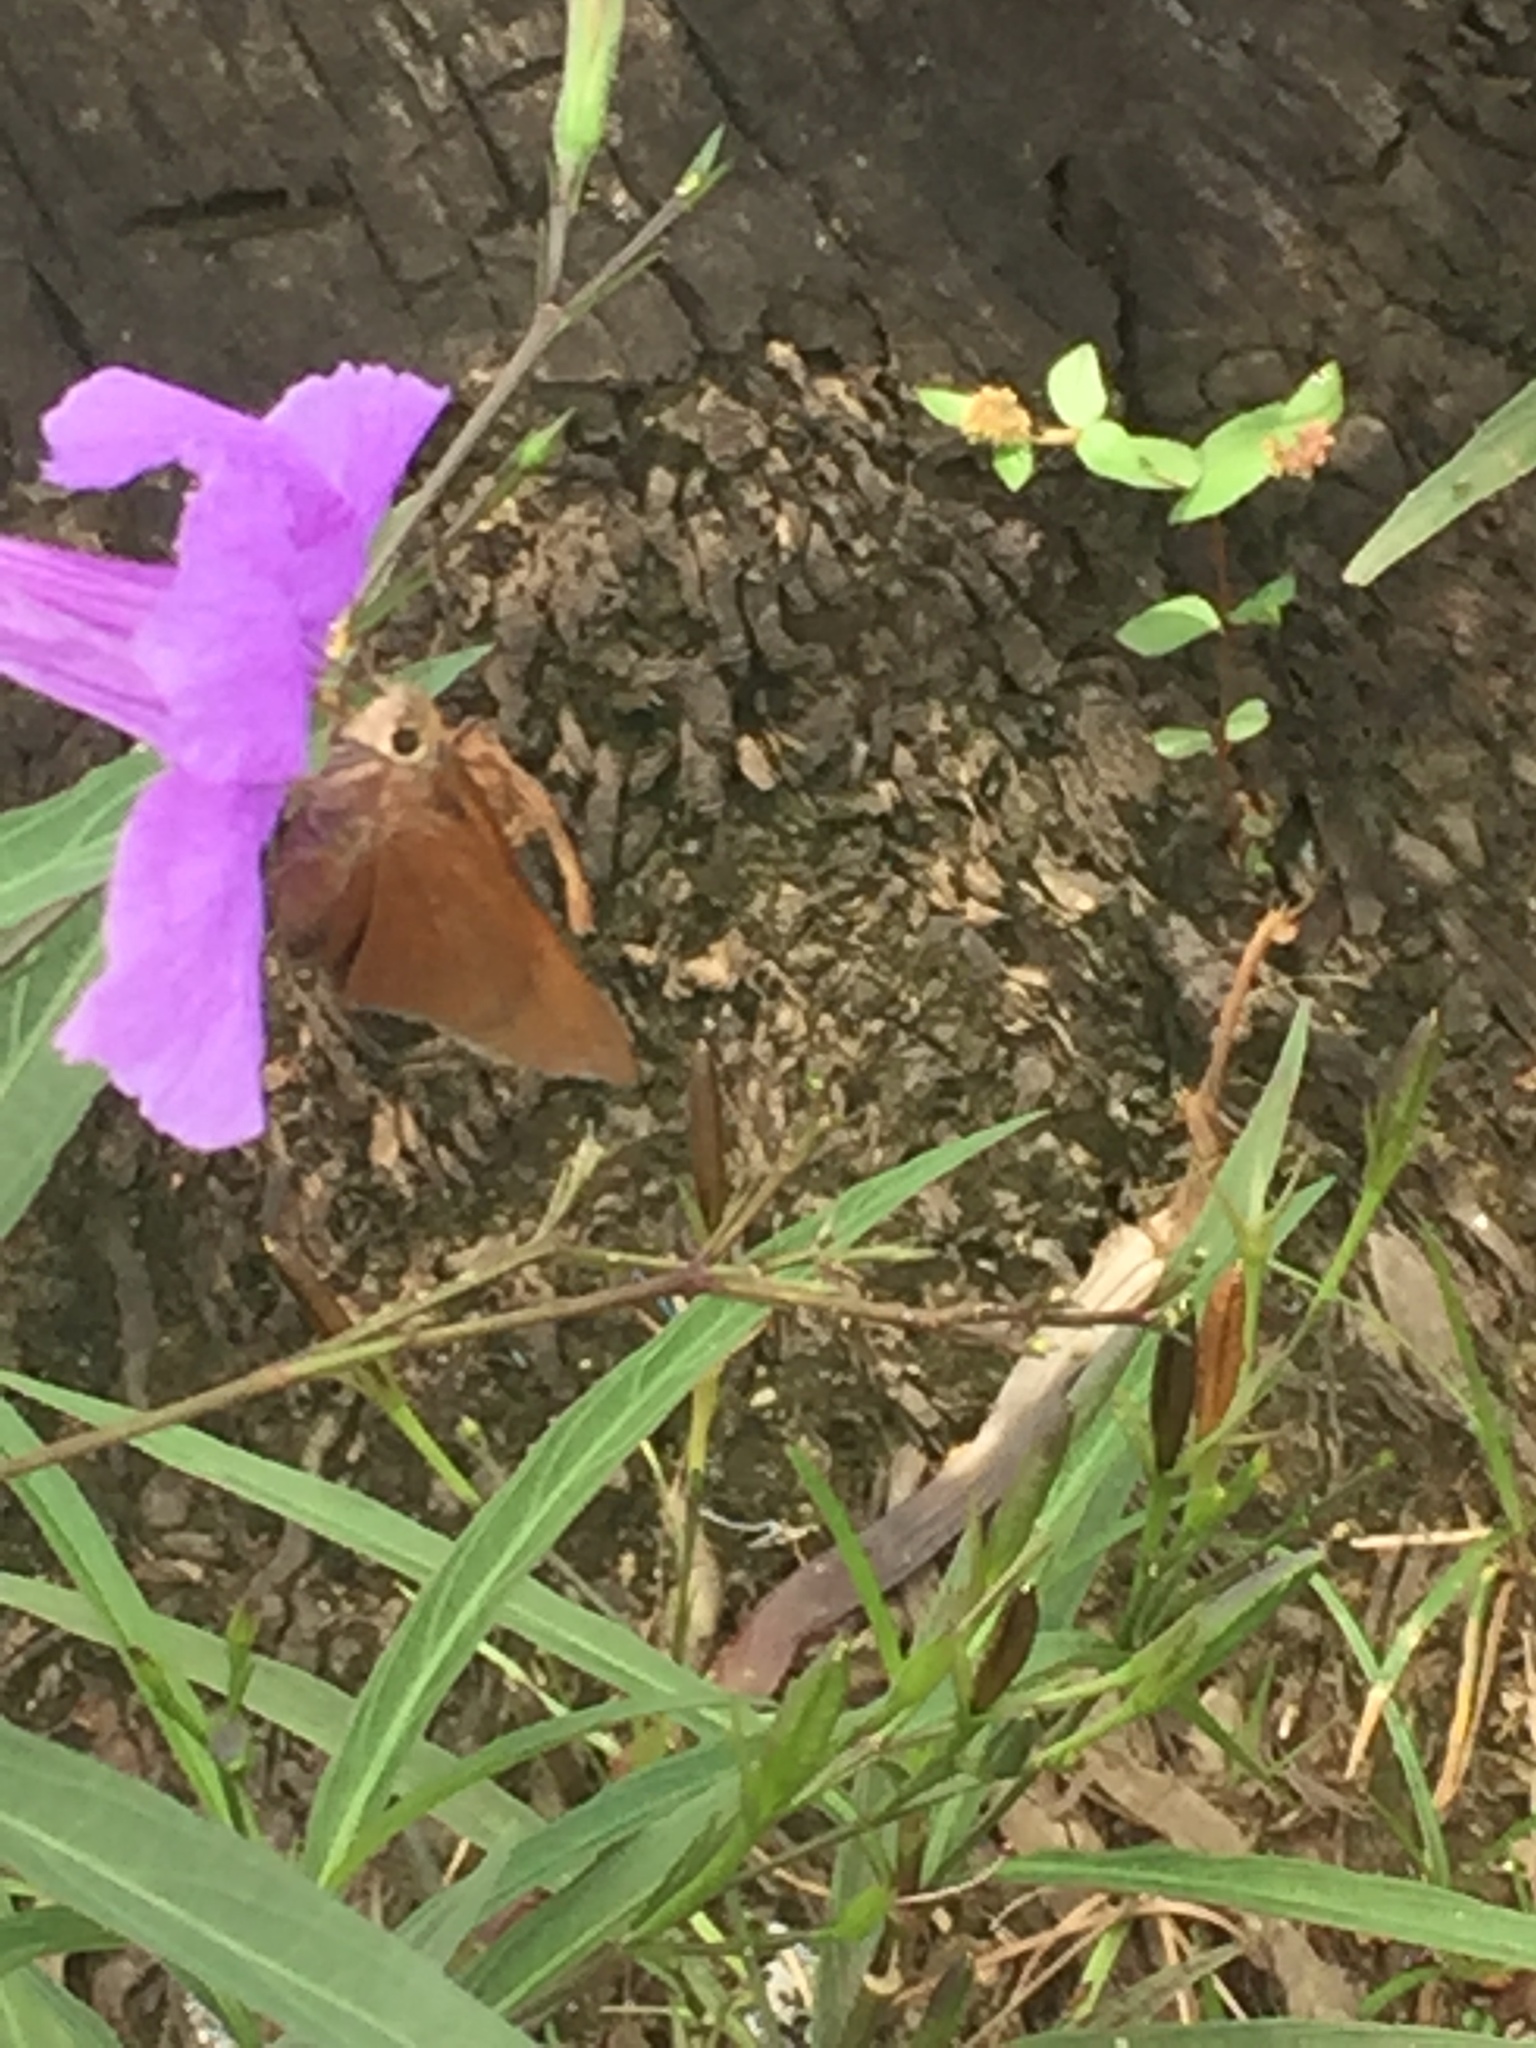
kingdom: Animalia
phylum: Arthropoda
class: Insecta
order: Lepidoptera
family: Hesperiidae
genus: Asbolis
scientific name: Asbolis capucinus
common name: Monk skipper
